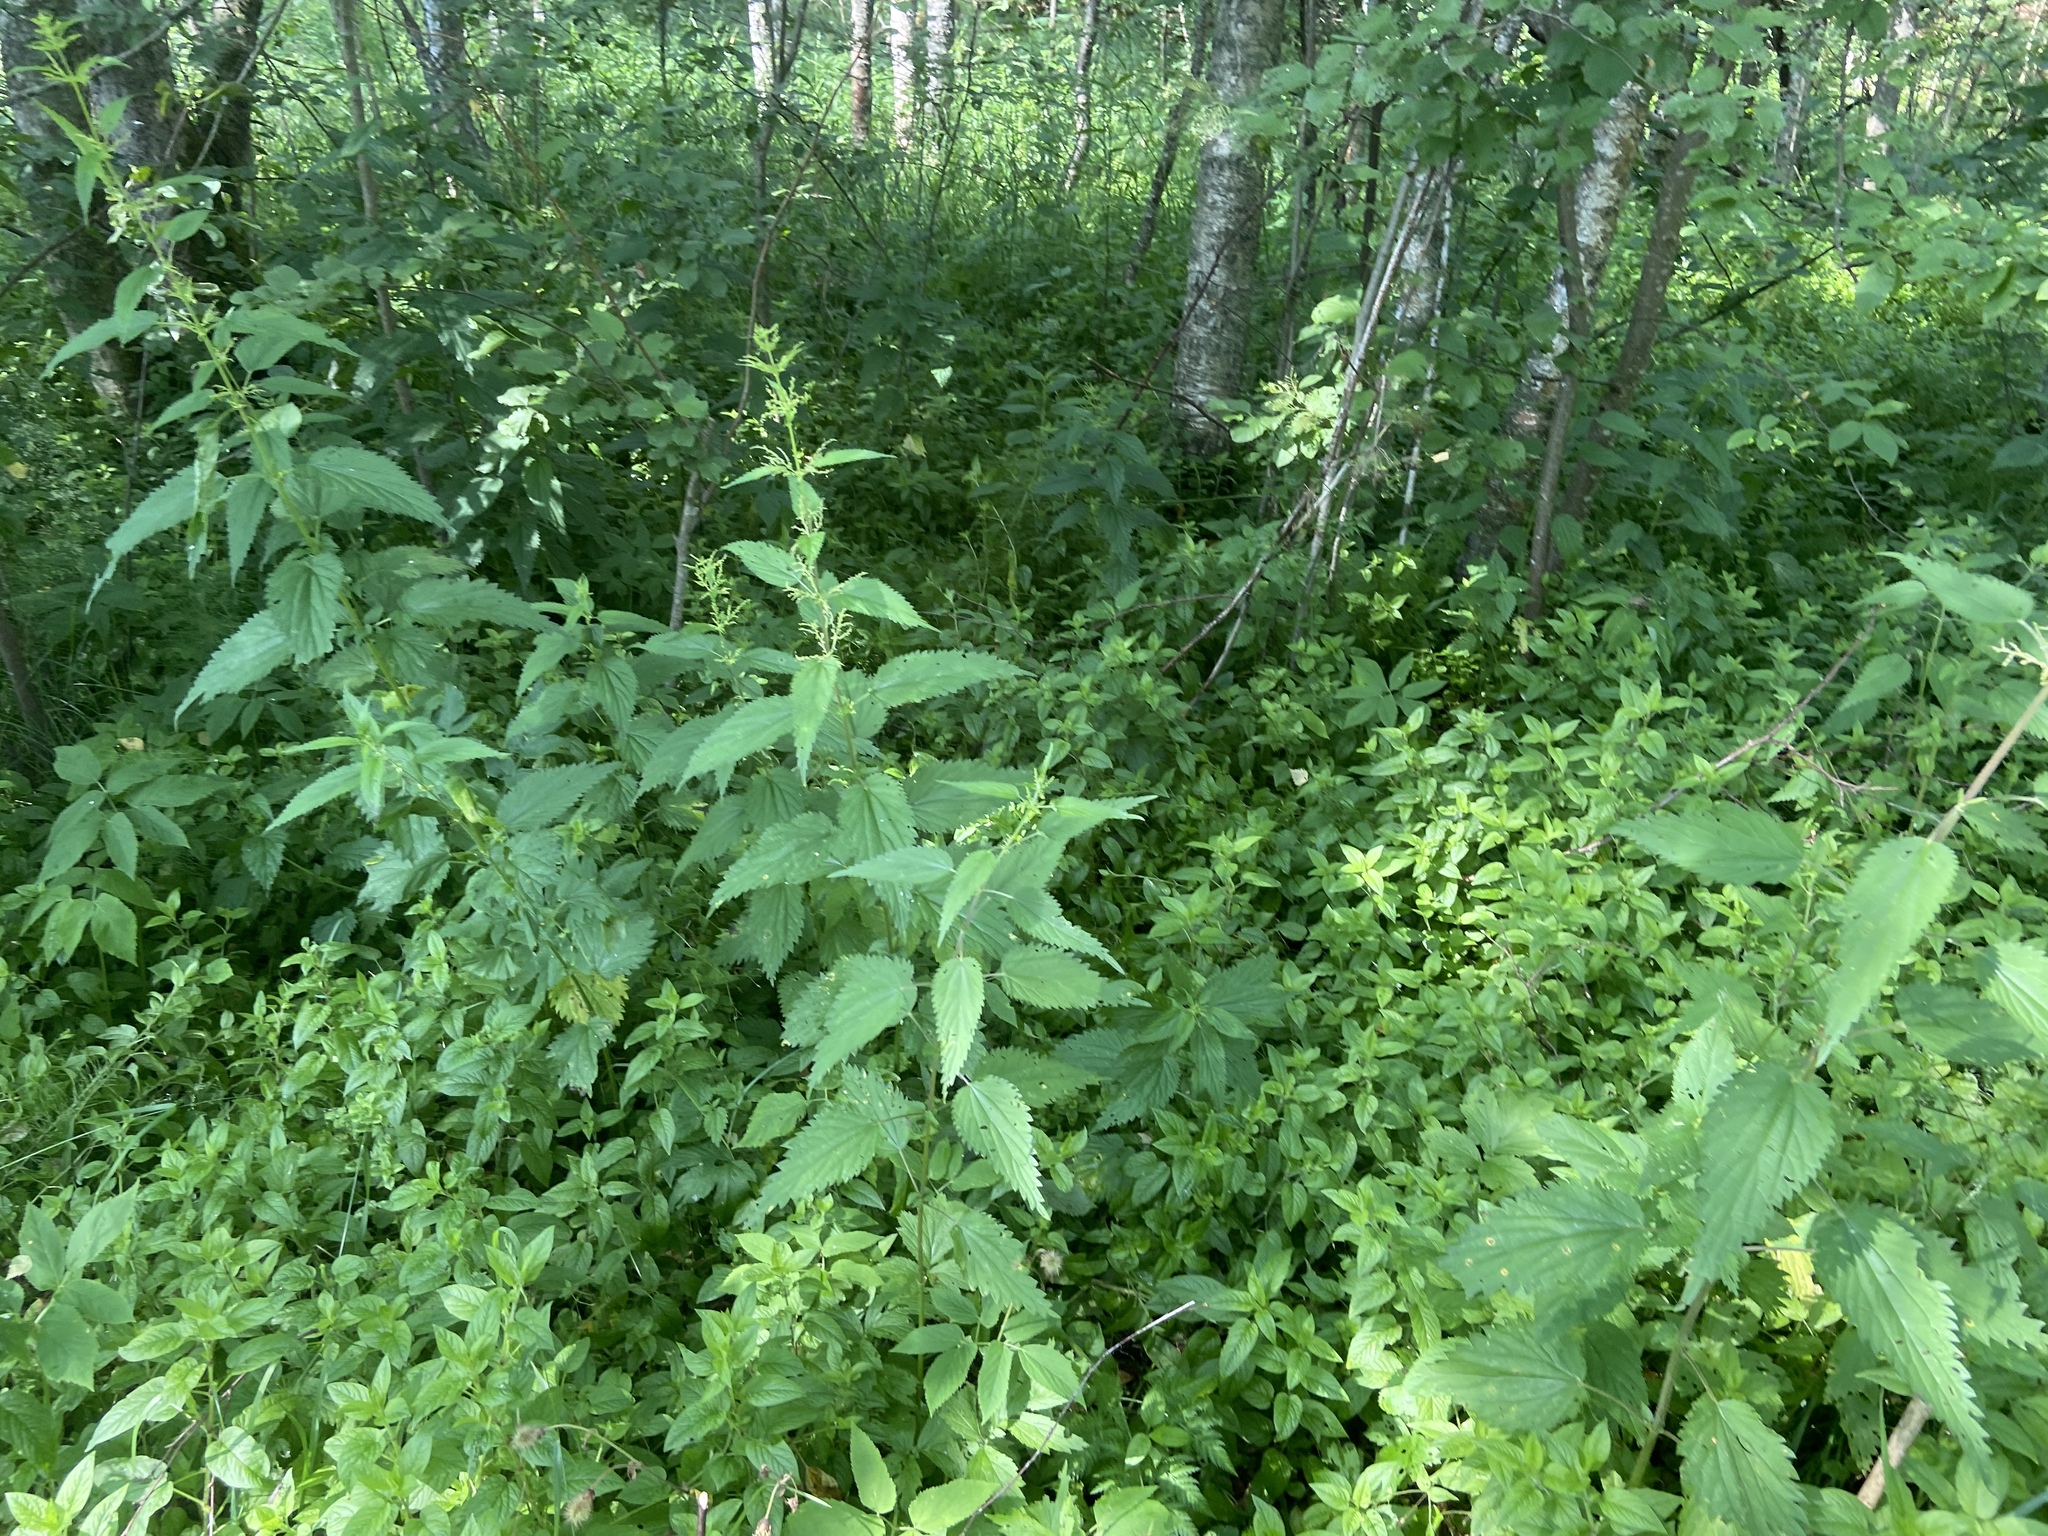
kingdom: Plantae
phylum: Tracheophyta
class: Magnoliopsida
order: Rosales
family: Urticaceae
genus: Urtica
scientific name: Urtica dioica
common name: Common nettle
